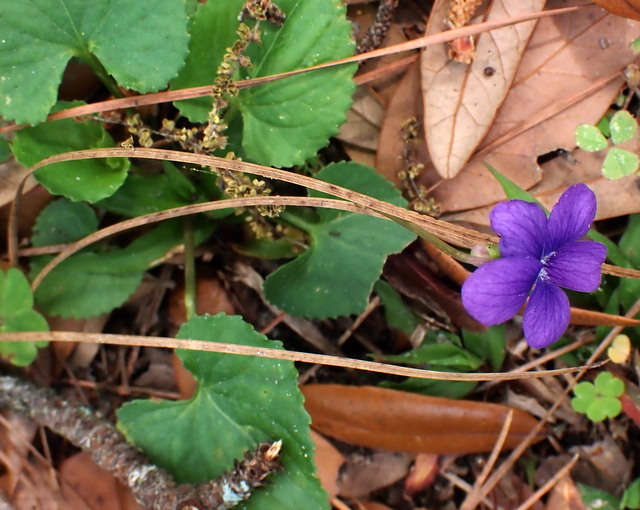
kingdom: Plantae
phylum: Tracheophyta
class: Magnoliopsida
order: Malpighiales
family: Violaceae
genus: Viola
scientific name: Viola sororia
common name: Dooryard violet
